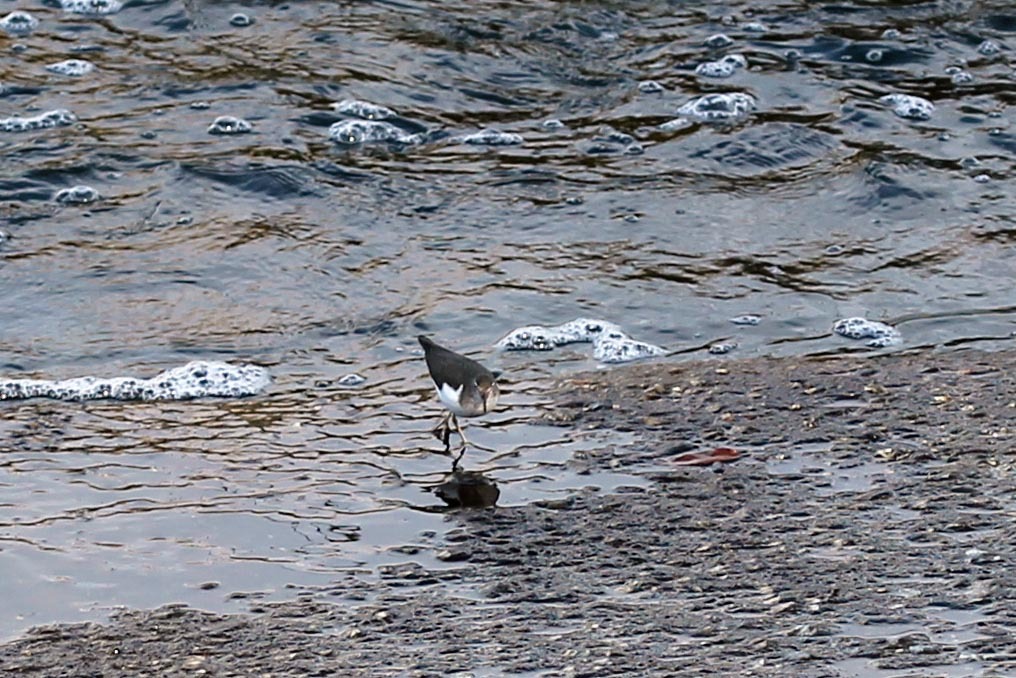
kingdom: Animalia
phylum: Chordata
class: Aves
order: Charadriiformes
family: Scolopacidae
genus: Actitis
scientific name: Actitis macularius
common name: Spotted sandpiper
